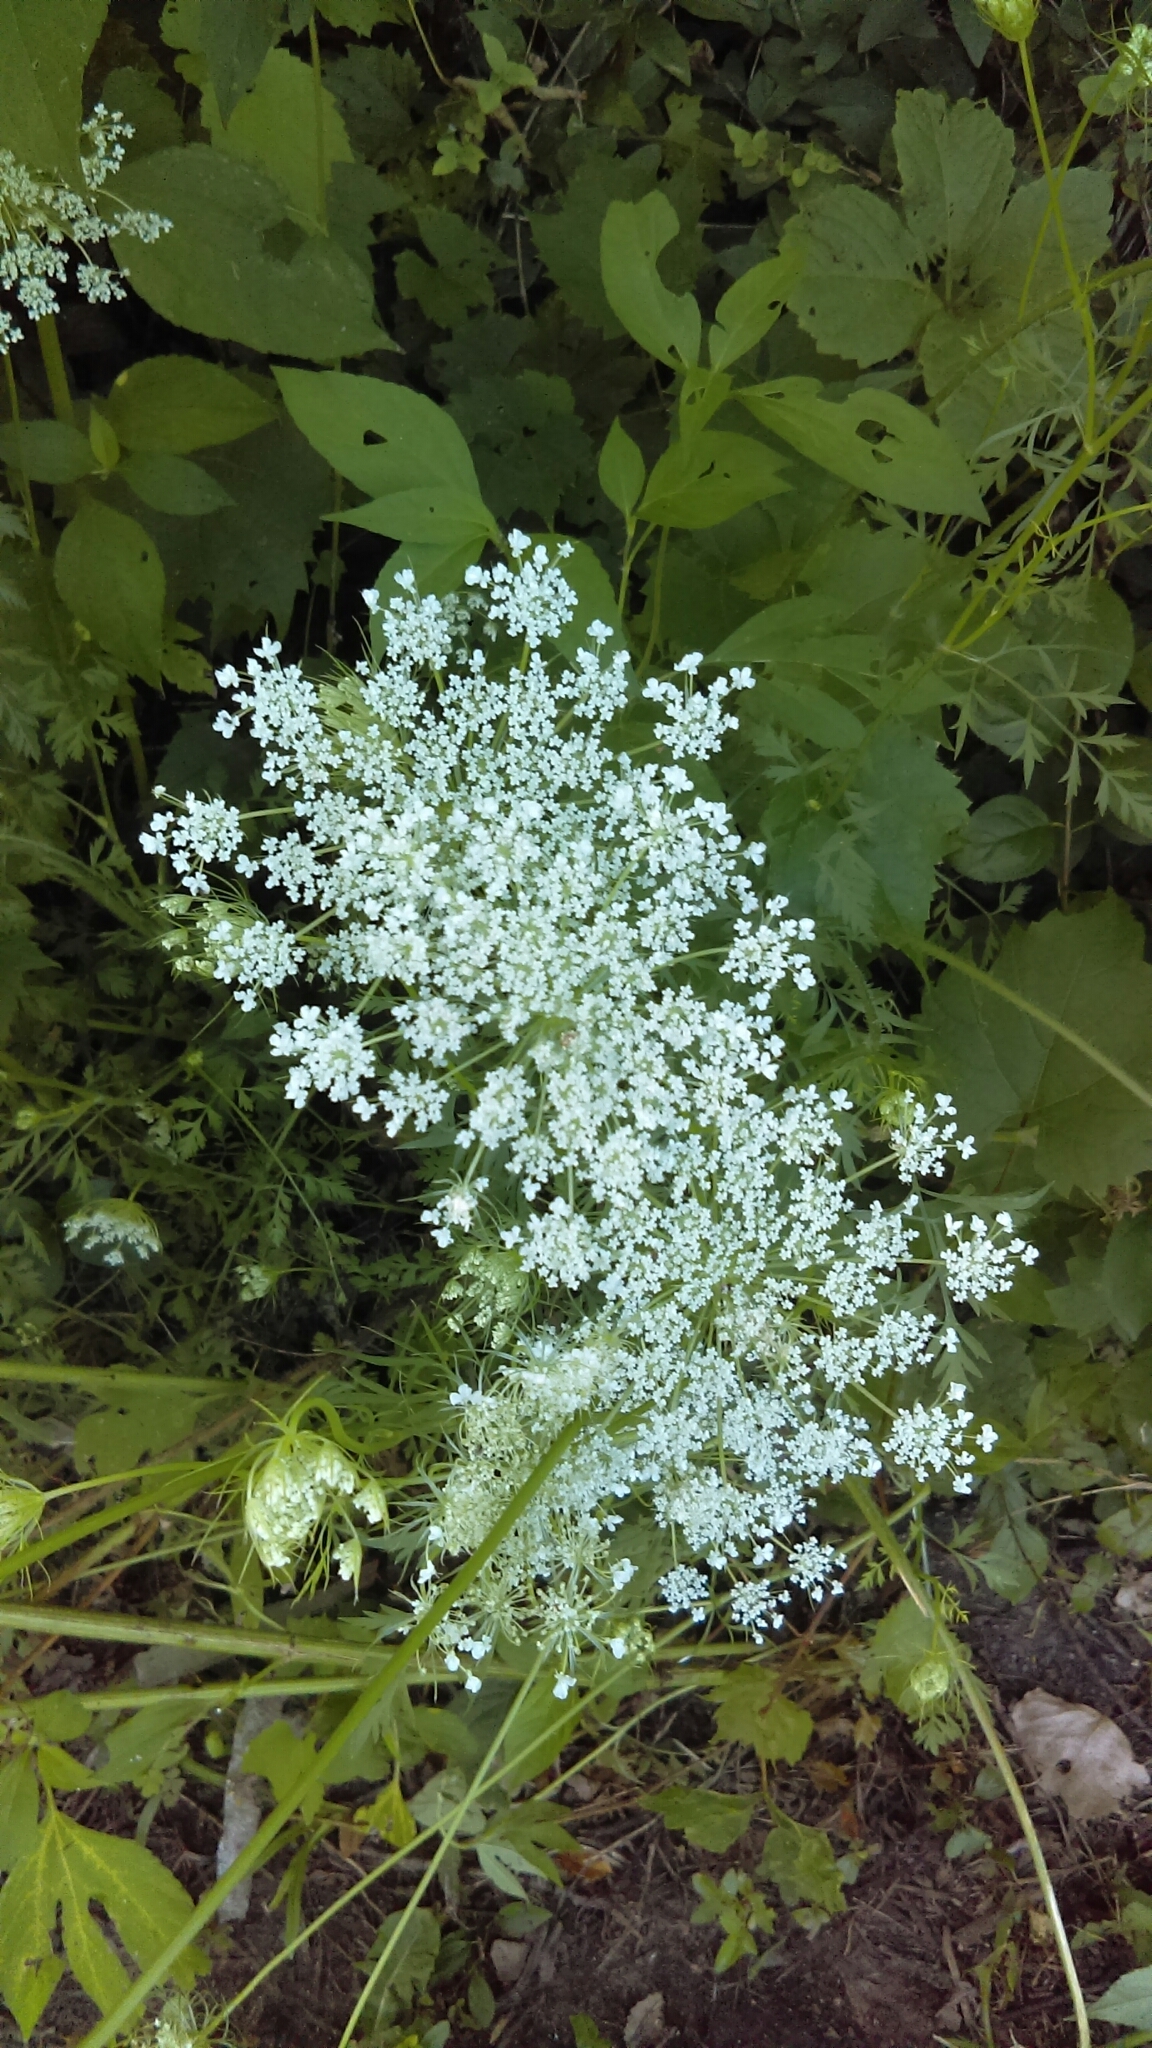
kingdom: Plantae
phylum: Tracheophyta
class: Magnoliopsida
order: Apiales
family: Apiaceae
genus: Daucus
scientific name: Daucus carota
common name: Wild carrot
